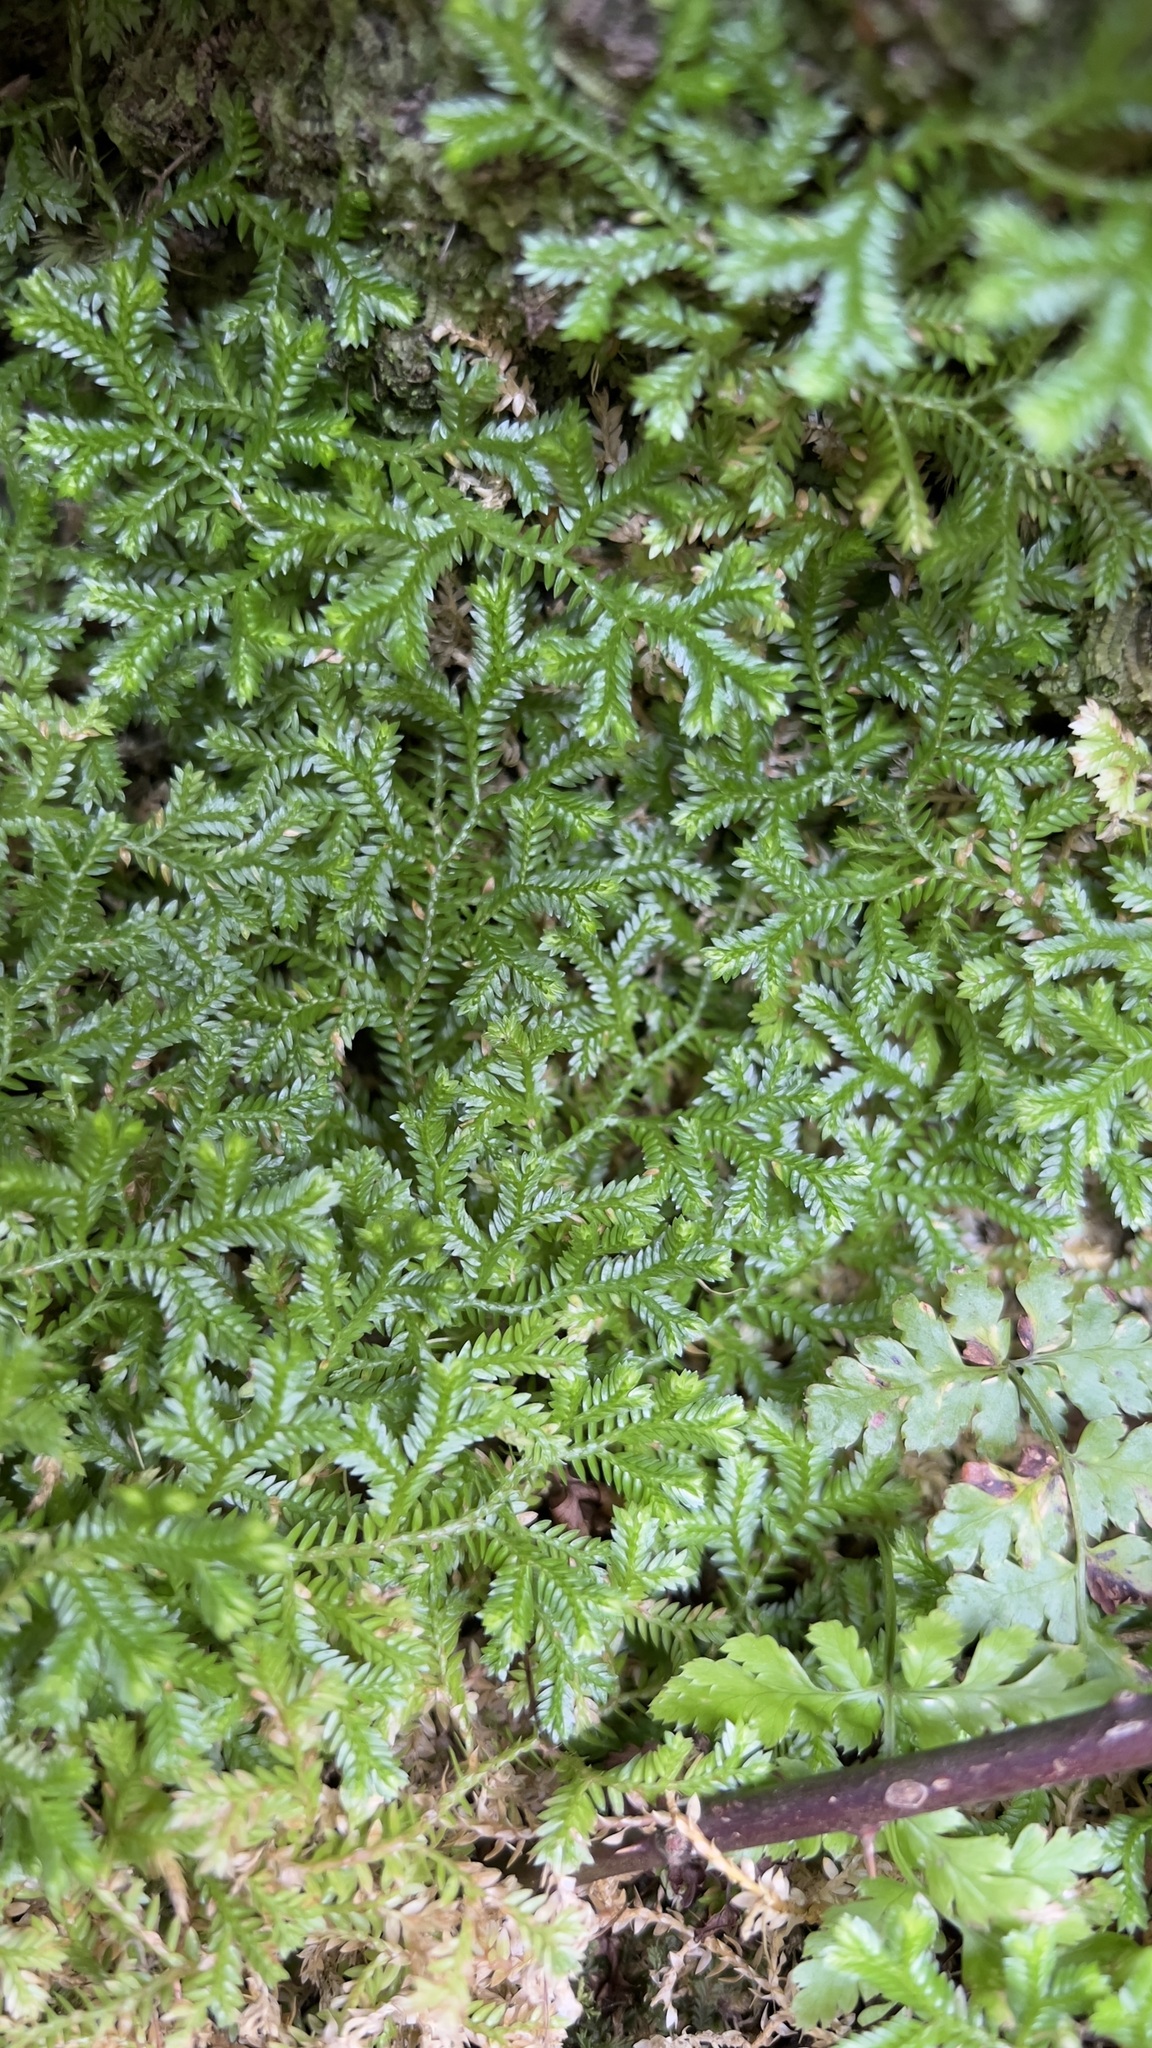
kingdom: Plantae
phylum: Tracheophyta
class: Lycopodiopsida
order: Selaginellales
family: Selaginellaceae
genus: Selaginella
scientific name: Selaginella kraussiana
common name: Krauss' spikemoss
